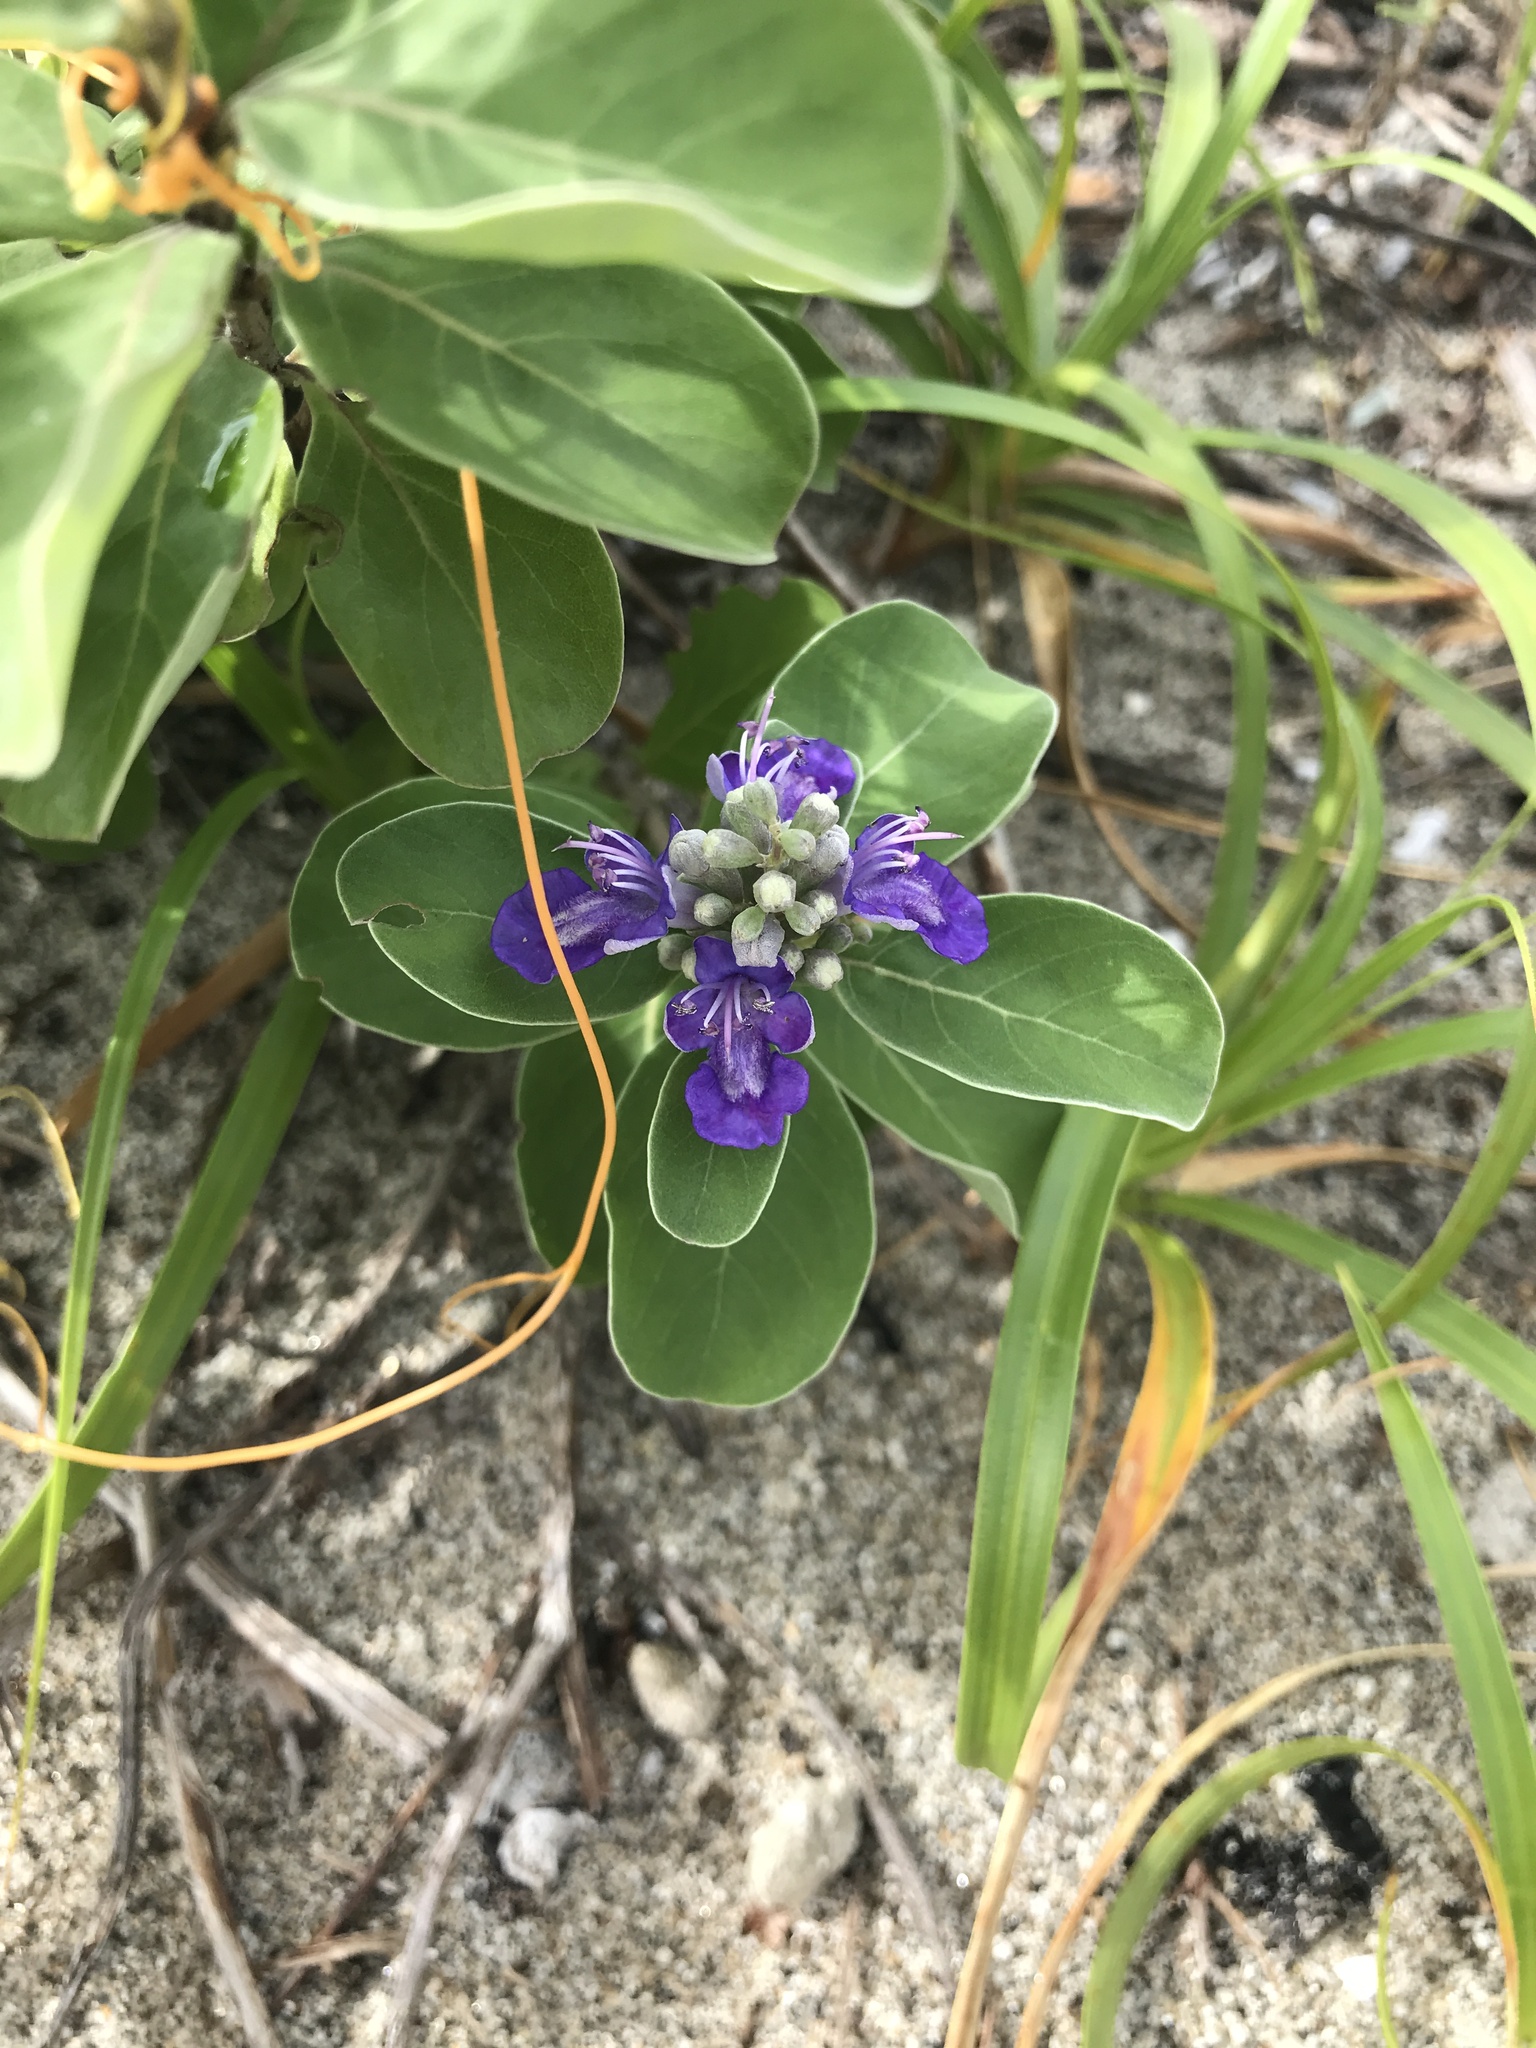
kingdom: Plantae
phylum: Tracheophyta
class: Magnoliopsida
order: Lamiales
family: Lamiaceae
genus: Vitex
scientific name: Vitex rotundifolia
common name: Beach vitex
